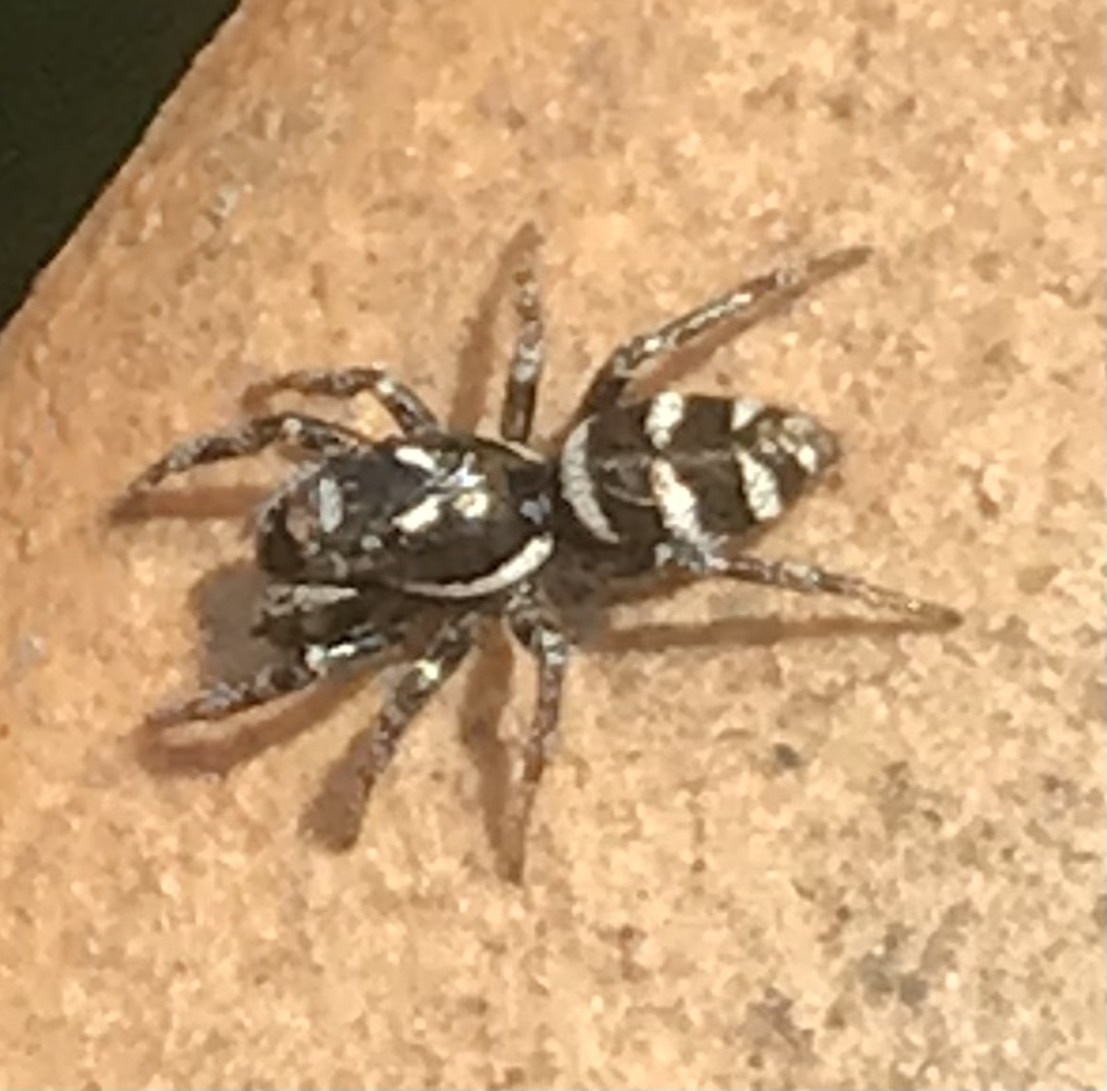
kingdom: Animalia
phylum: Arthropoda
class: Arachnida
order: Araneae
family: Salticidae
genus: Salticus
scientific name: Salticus scenicus
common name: Zebra jumper
